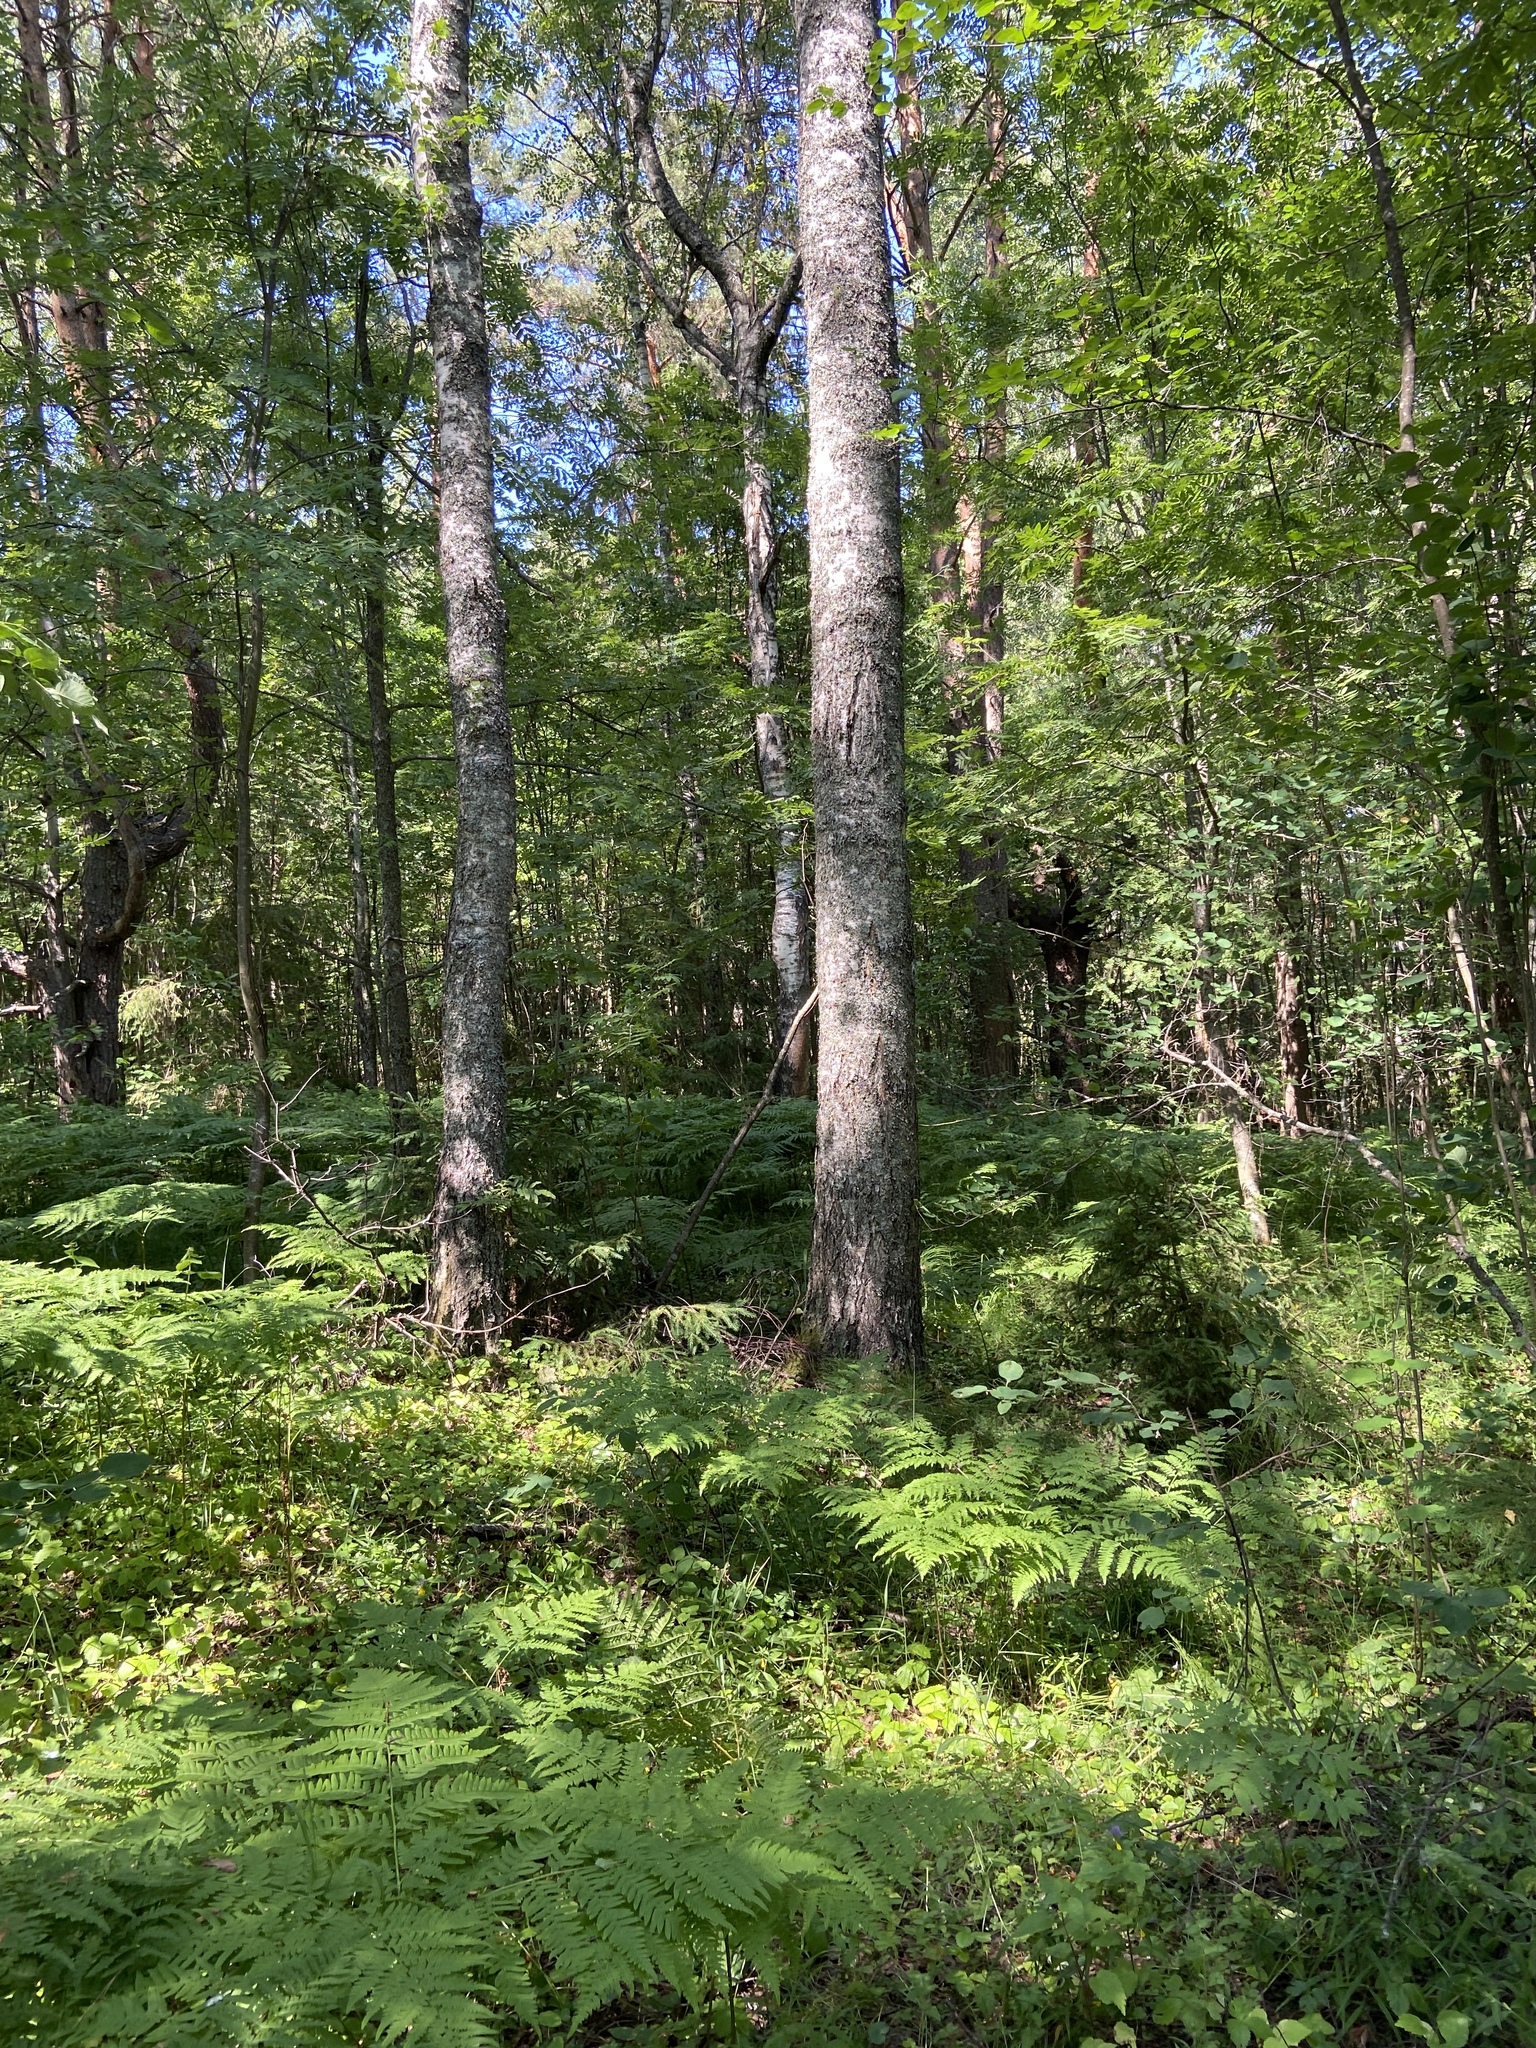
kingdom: Plantae
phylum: Tracheophyta
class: Polypodiopsida
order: Polypodiales
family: Dennstaedtiaceae
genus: Pteridium
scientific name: Pteridium aquilinum
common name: Bracken
